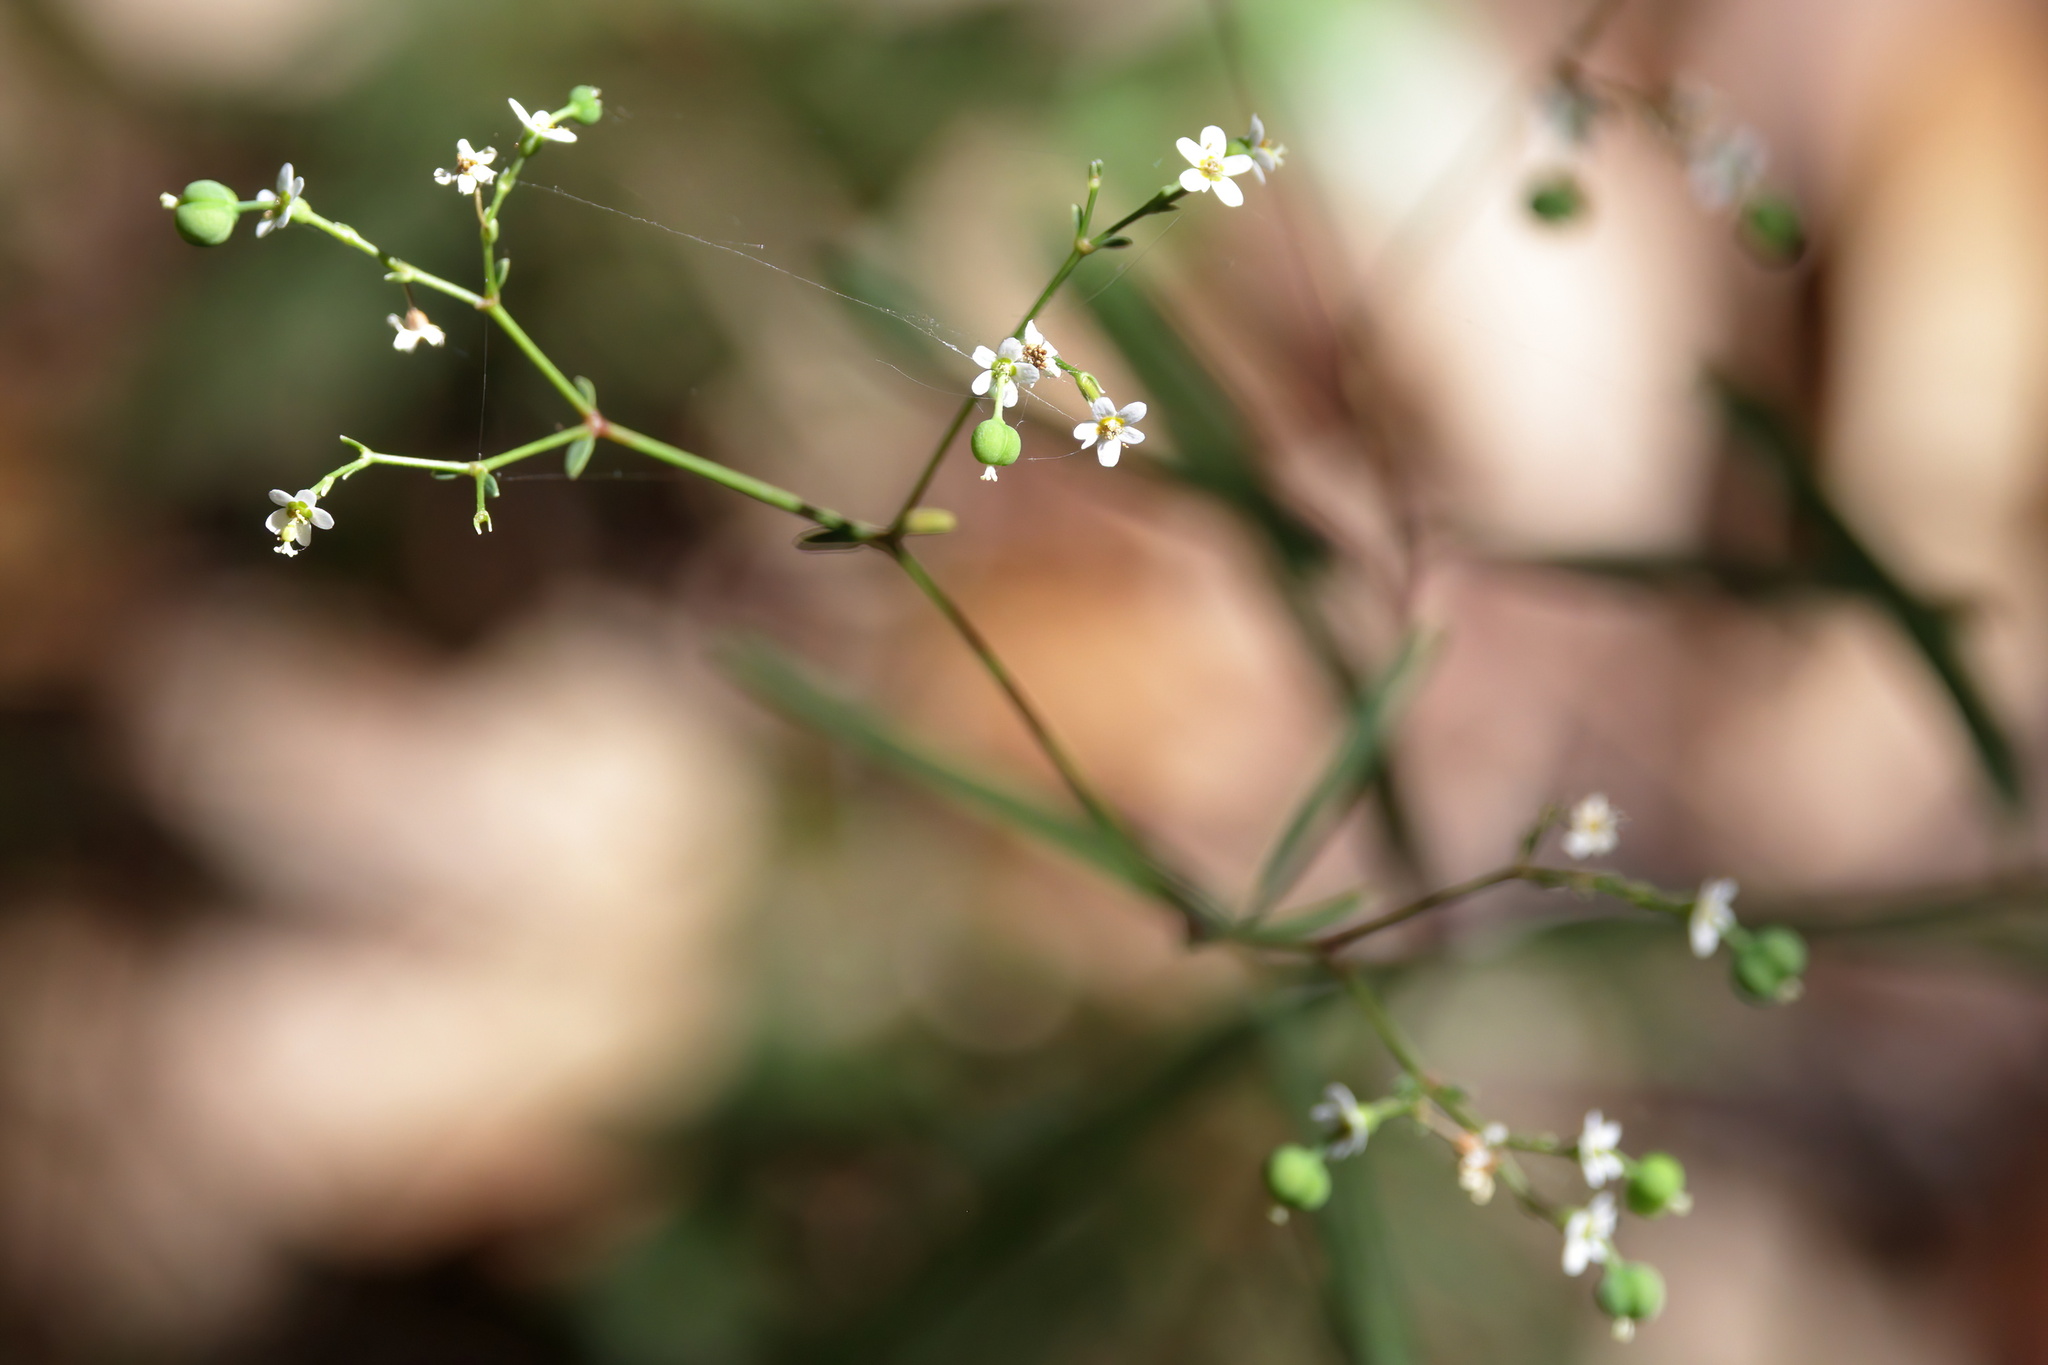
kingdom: Plantae
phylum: Tracheophyta
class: Magnoliopsida
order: Malpighiales
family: Euphorbiaceae
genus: Euphorbia
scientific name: Euphorbia corollata
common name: Flowering spurge
